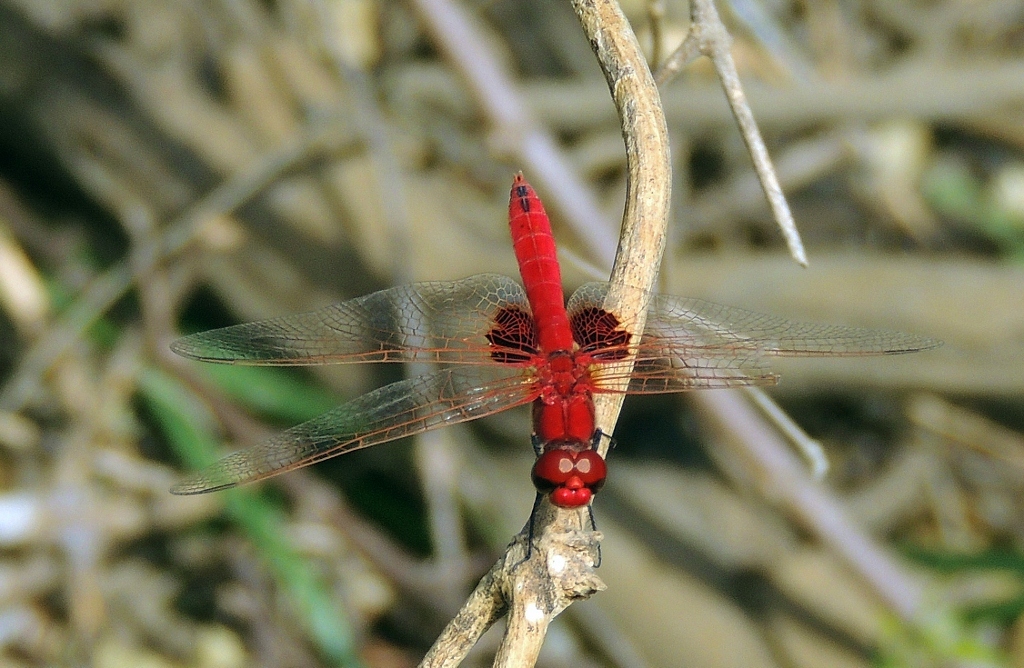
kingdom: Animalia
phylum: Arthropoda
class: Insecta
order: Odonata
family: Libellulidae
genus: Urothemis
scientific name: Urothemis assignata
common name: Red basker
